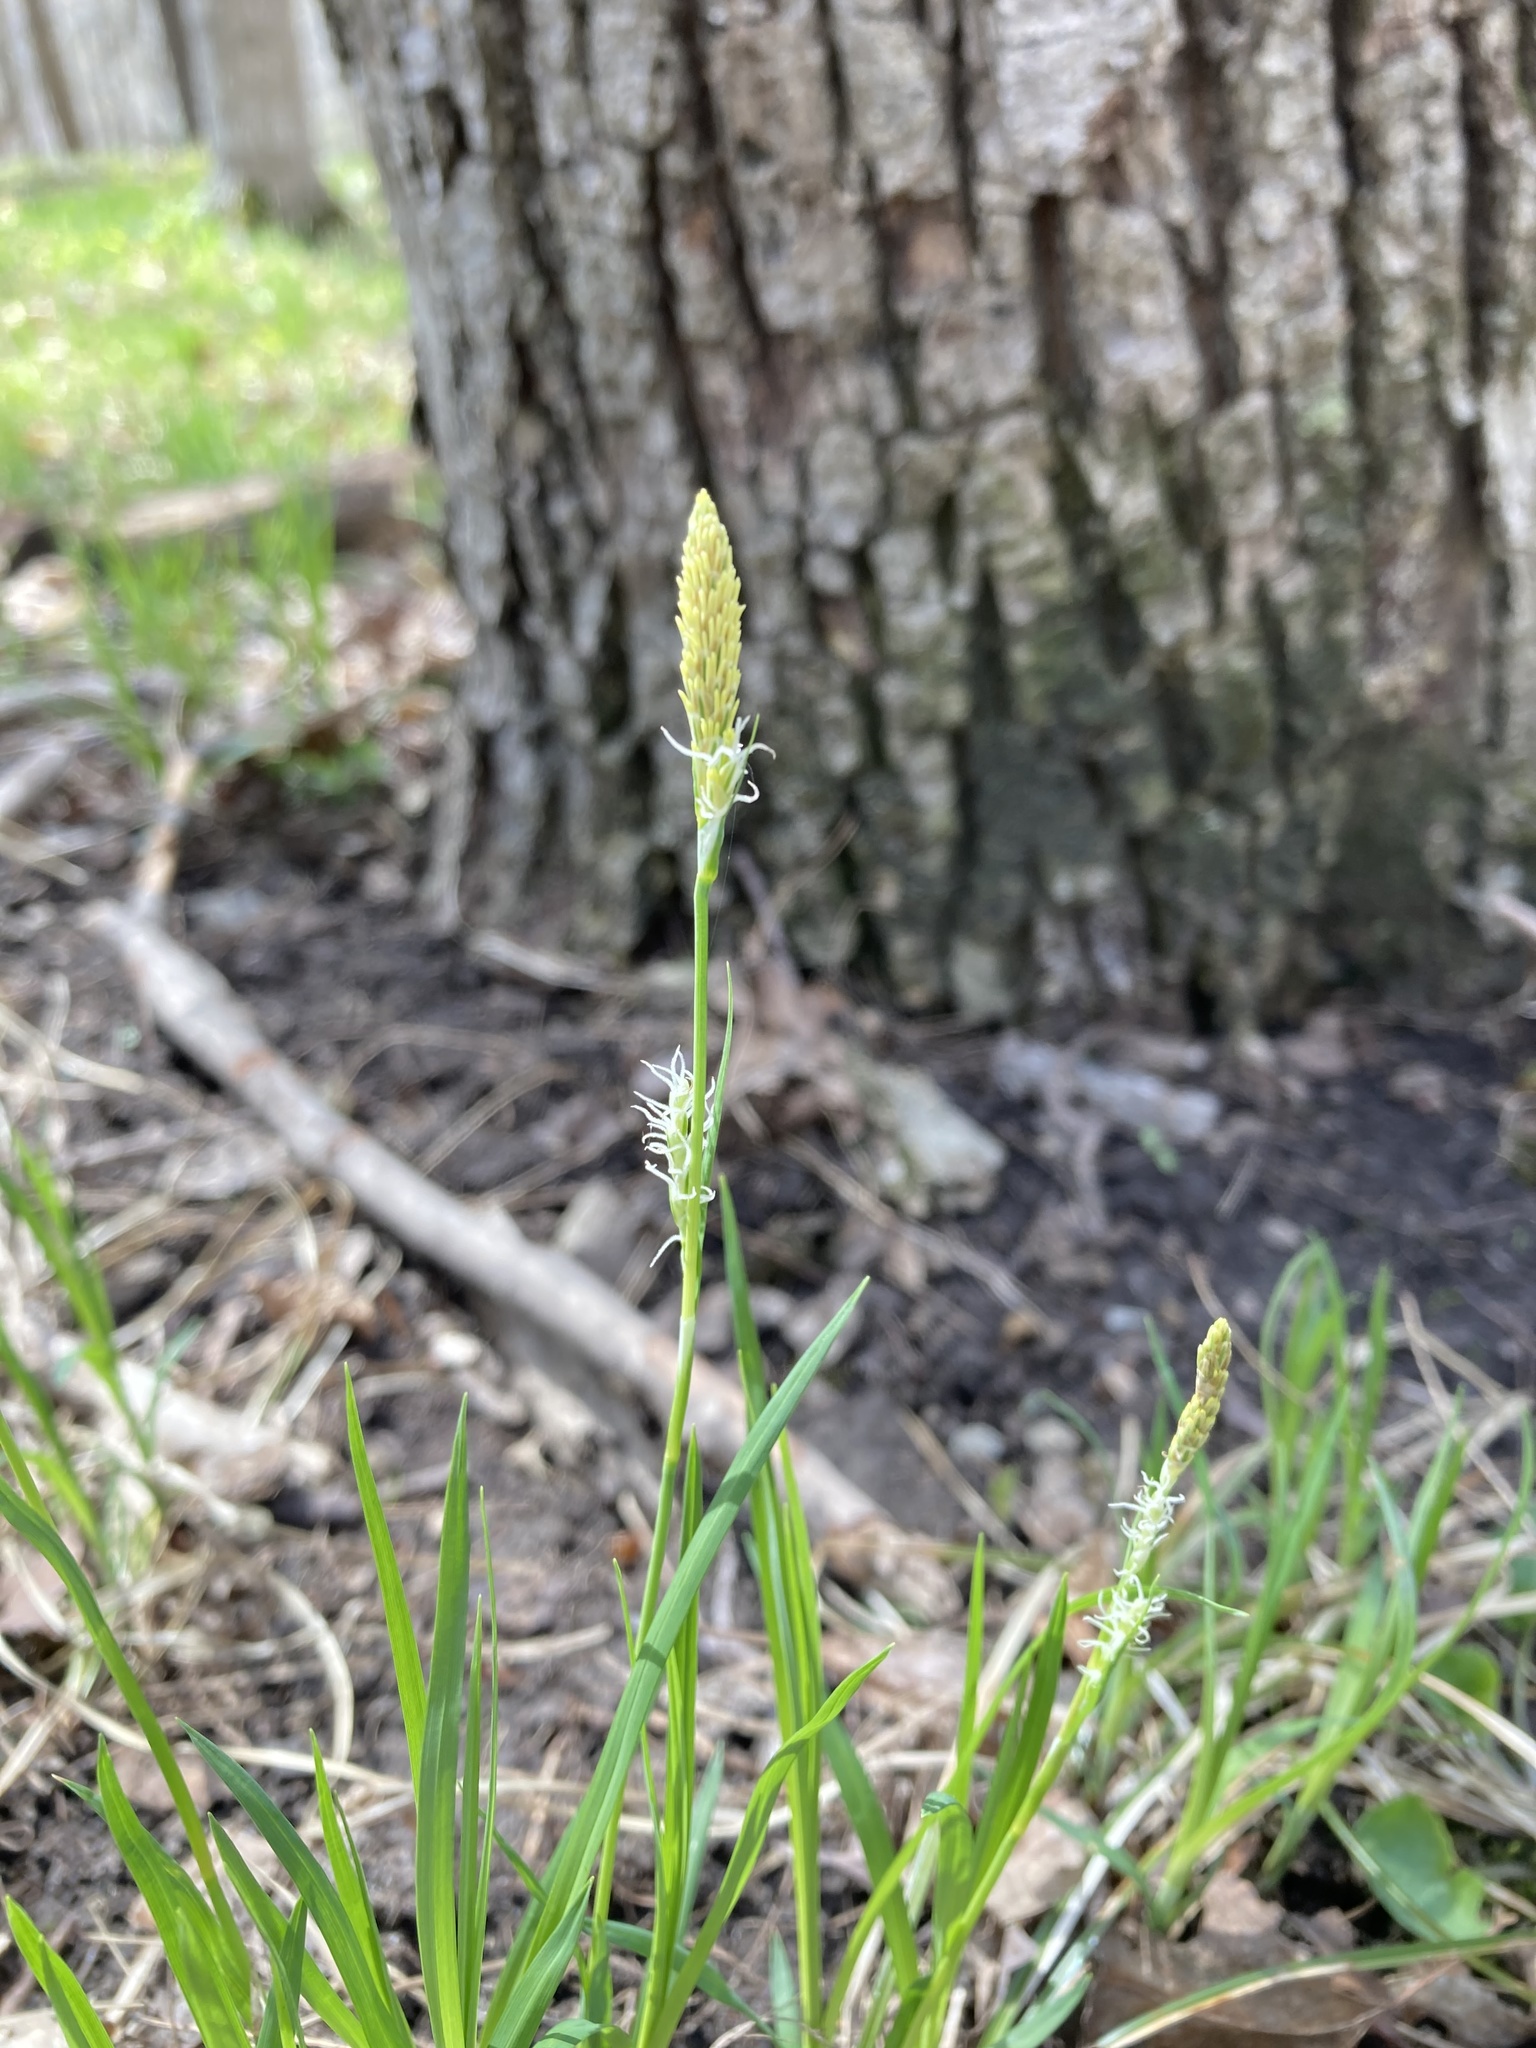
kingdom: Plantae
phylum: Tracheophyta
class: Liliopsida
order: Poales
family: Cyperaceae
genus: Carex
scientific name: Carex woodii
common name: Wood's sedge
